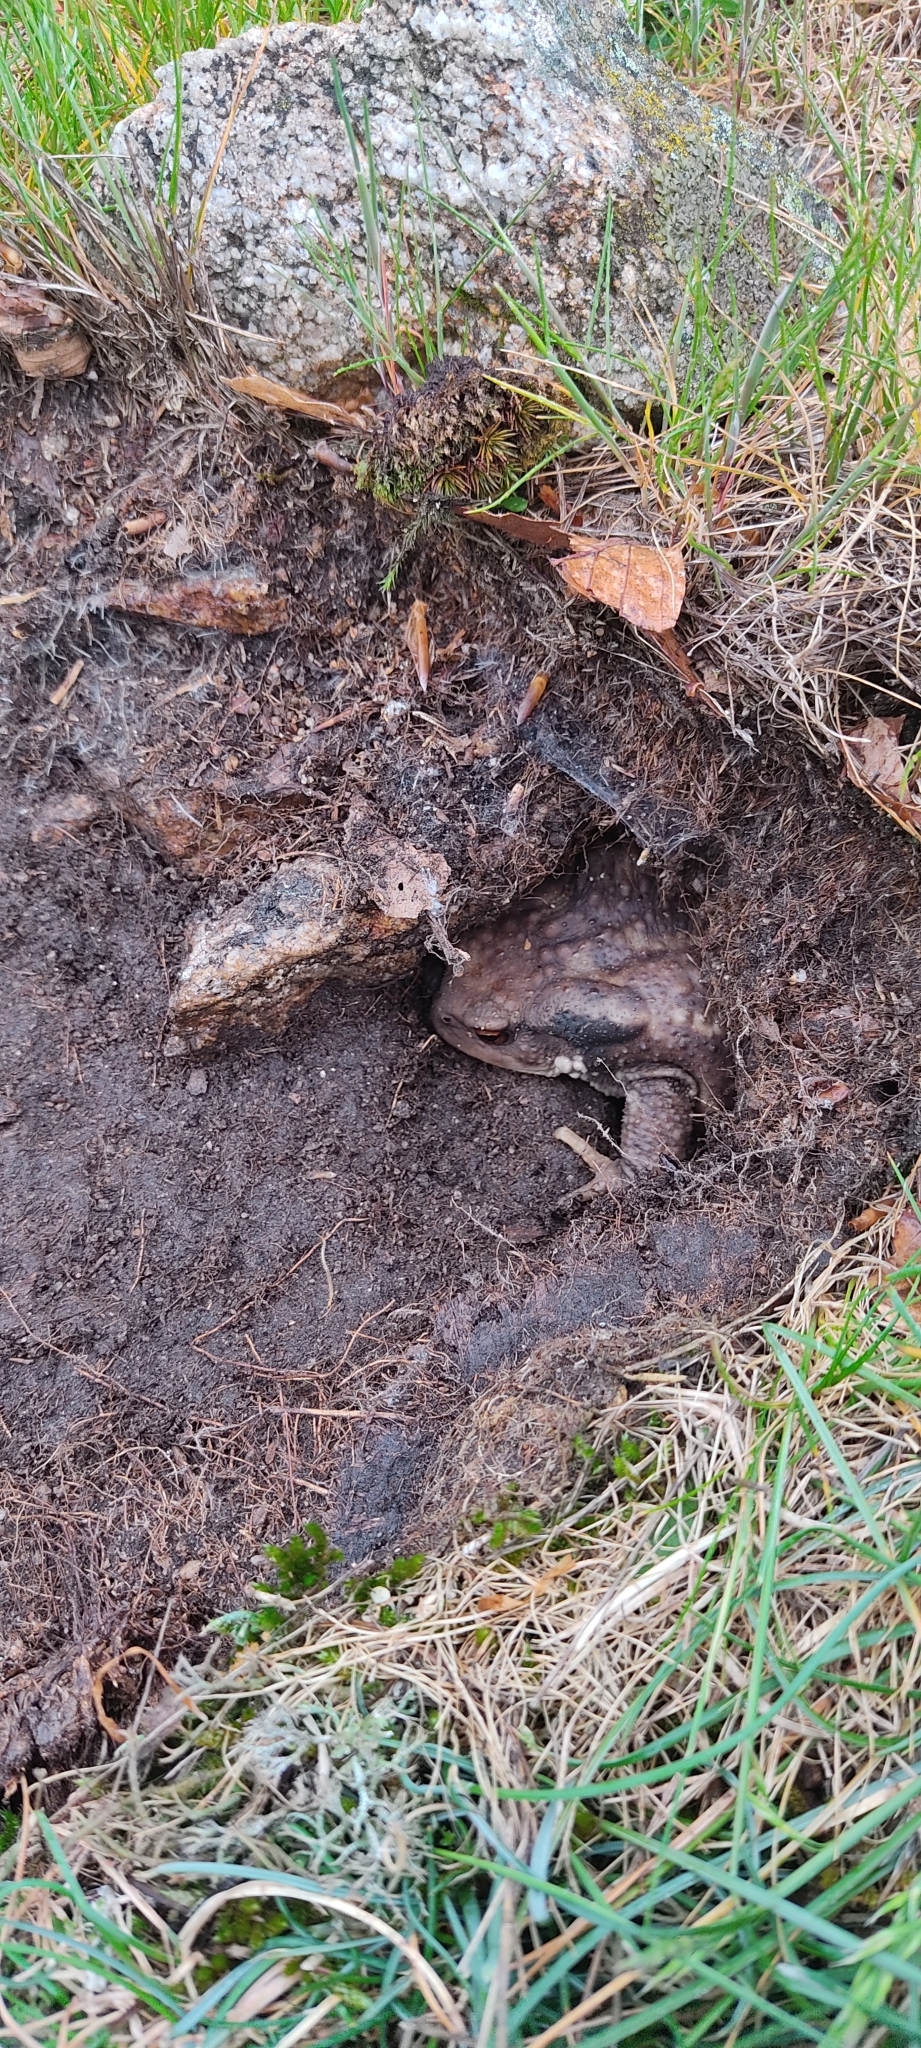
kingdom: Animalia
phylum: Chordata
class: Amphibia
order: Anura
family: Bufonidae
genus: Bufo
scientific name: Bufo spinosus
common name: Western common toad
